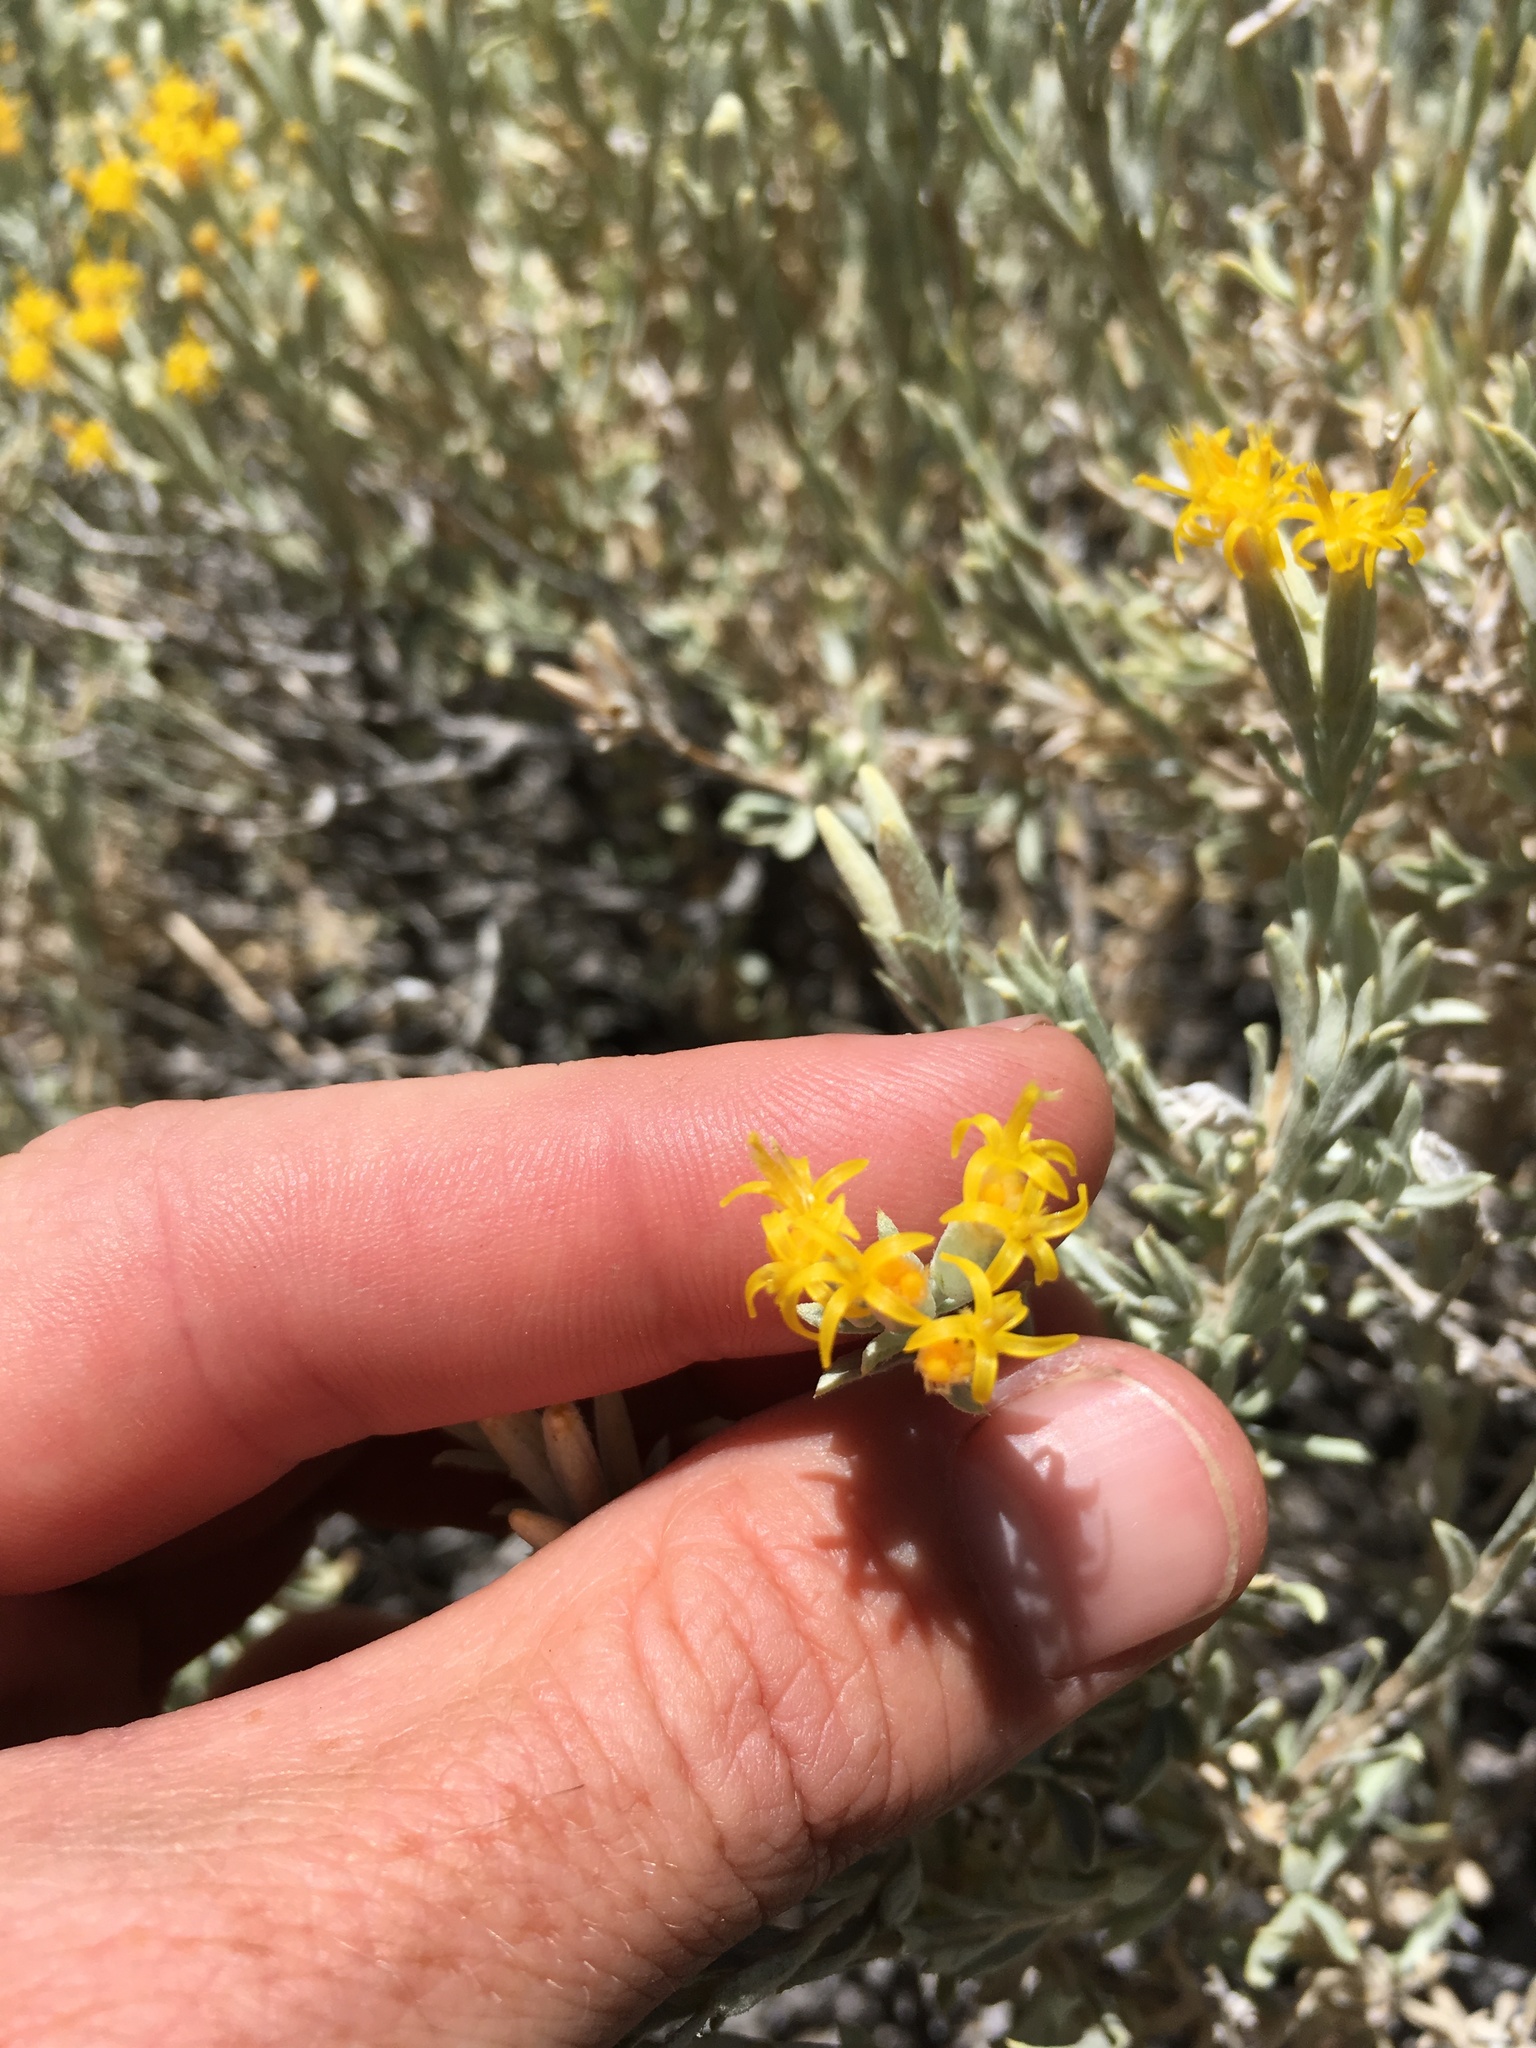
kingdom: Plantae
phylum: Tracheophyta
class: Magnoliopsida
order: Asterales
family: Asteraceae
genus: Tetradymia
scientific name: Tetradymia canescens
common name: Spineless horsebrush
